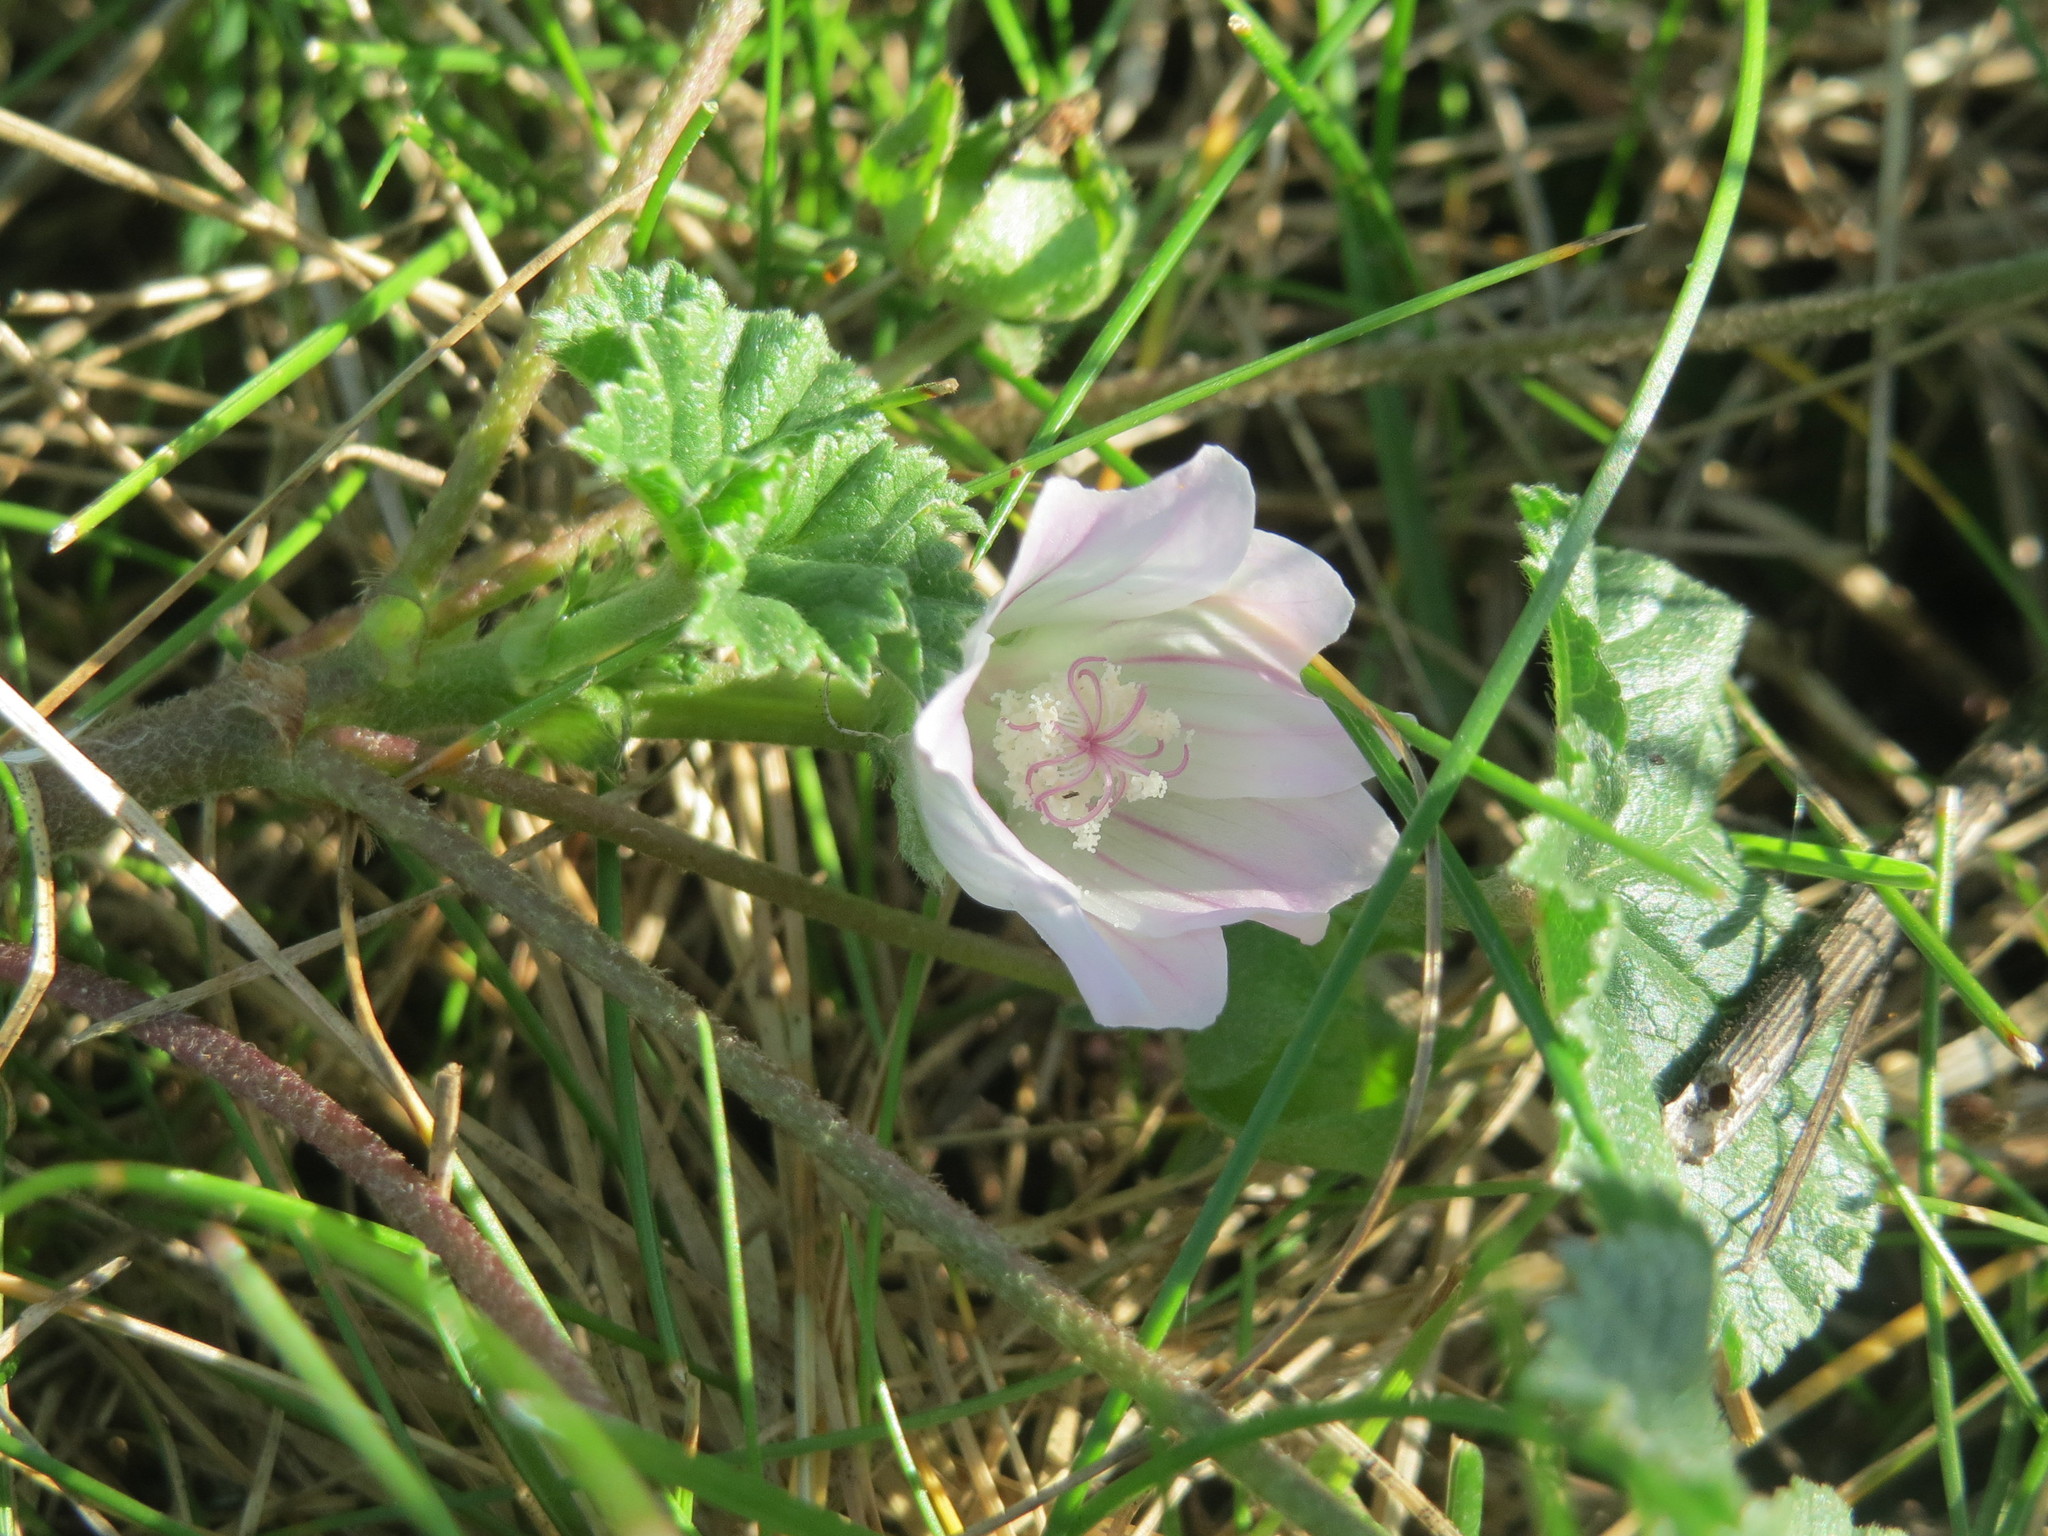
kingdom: Plantae
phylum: Tracheophyta
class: Magnoliopsida
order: Malvales
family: Malvaceae
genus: Malva
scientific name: Malva neglecta
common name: Common mallow
